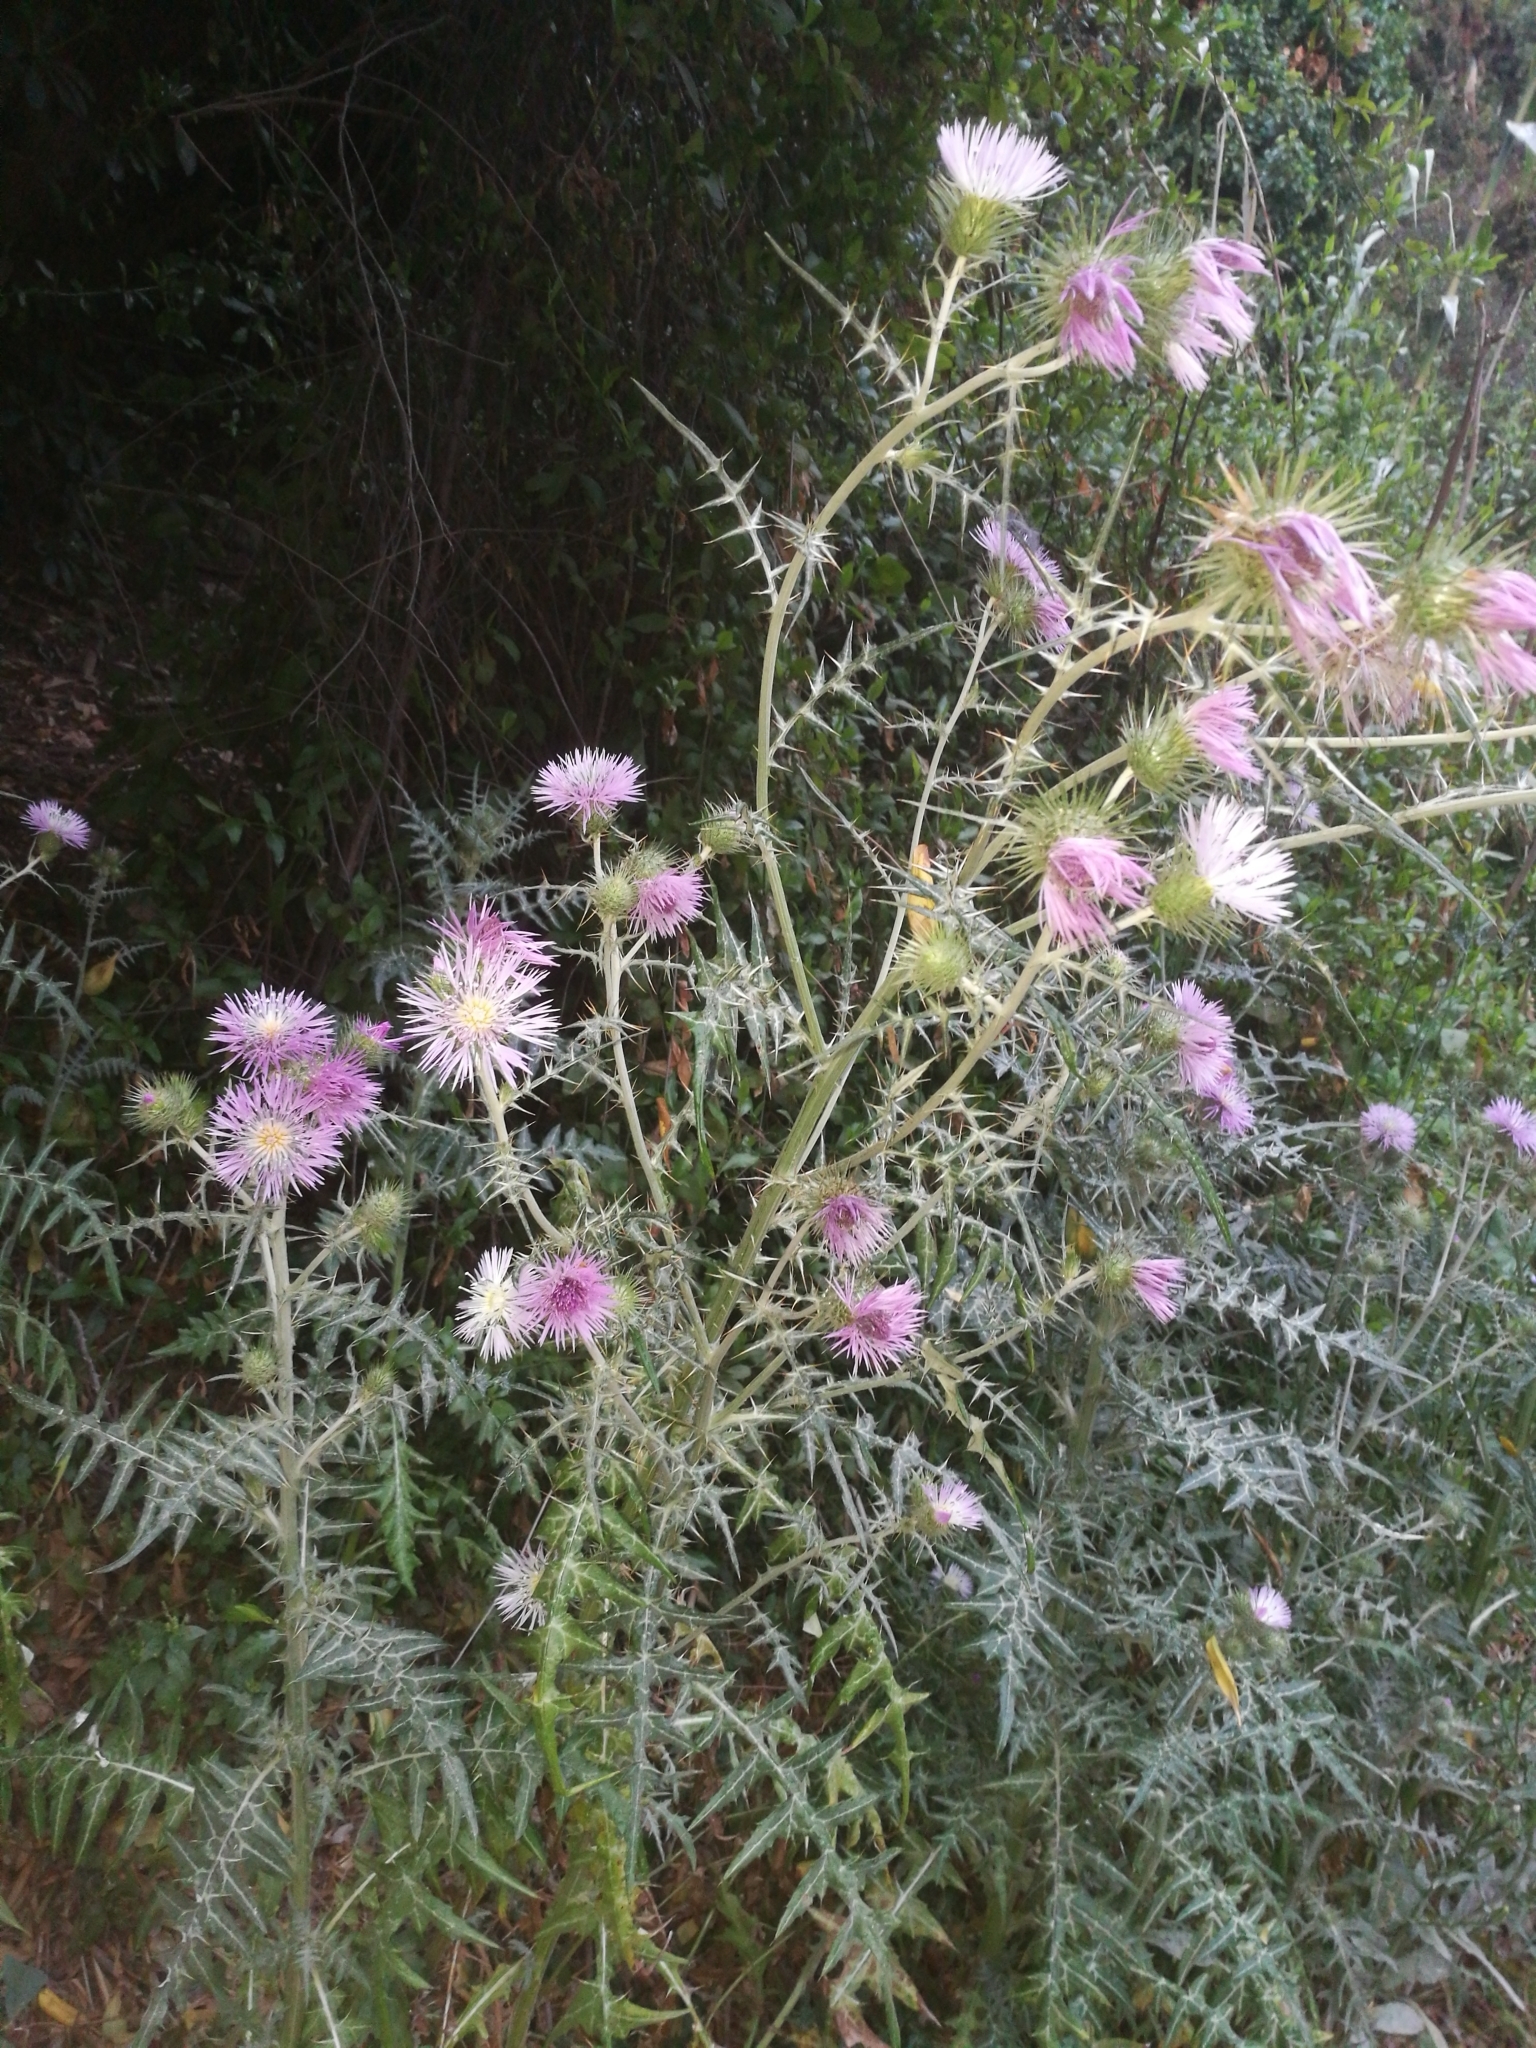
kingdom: Plantae
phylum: Tracheophyta
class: Magnoliopsida
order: Asterales
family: Asteraceae
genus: Galactites
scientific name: Galactites tomentosa
